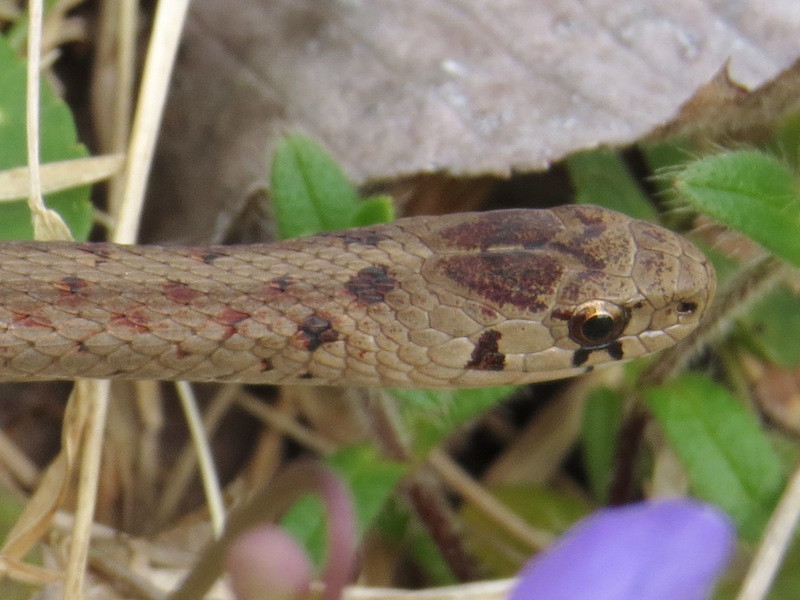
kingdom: Animalia
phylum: Chordata
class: Squamata
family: Colubridae
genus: Storeria
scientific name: Storeria dekayi
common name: (dekay’s) brown snake
